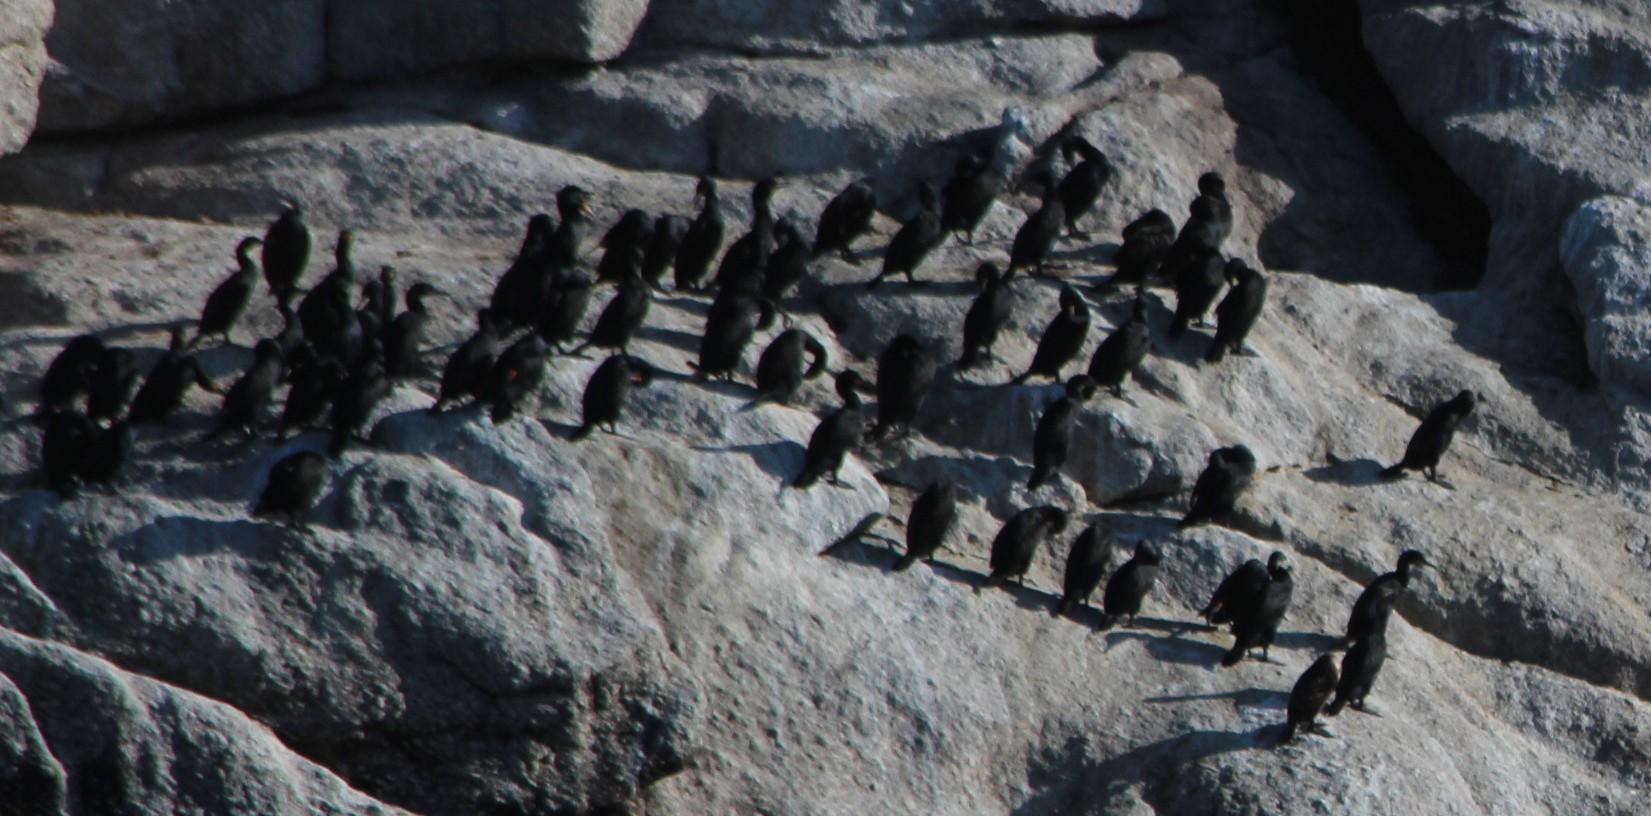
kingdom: Animalia
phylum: Chordata
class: Aves
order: Suliformes
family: Phalacrocoracidae
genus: Phalacrocorax
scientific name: Phalacrocorax capensis
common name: Cape cormorant
